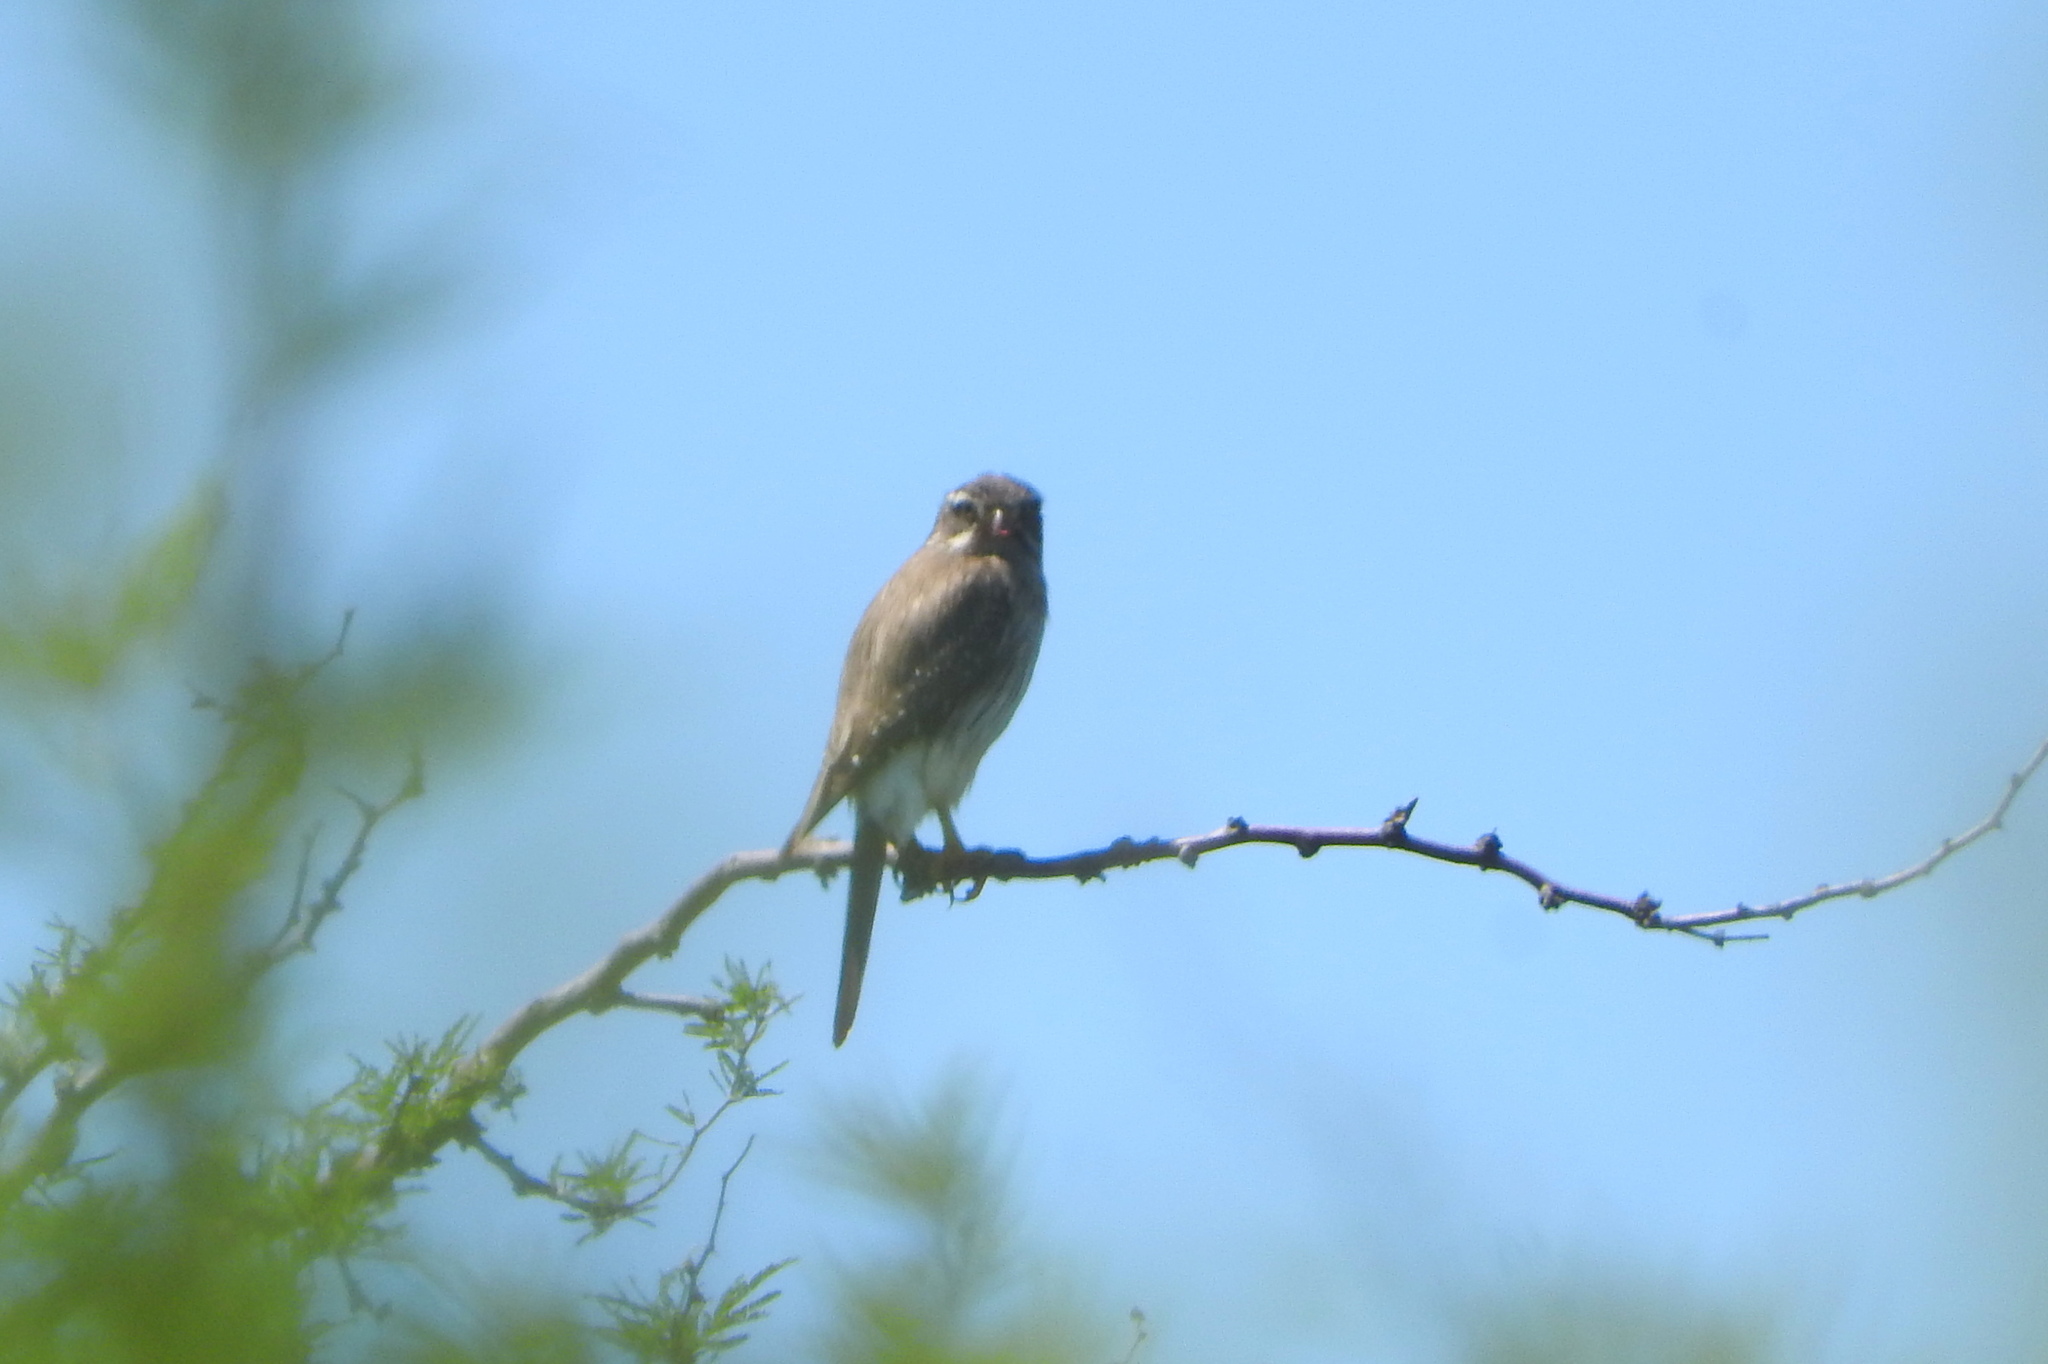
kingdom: Animalia
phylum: Chordata
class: Aves
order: Falconiformes
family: Falconidae
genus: Spiziapteryx
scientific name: Spiziapteryx circumcincta
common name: Spot-winged falconet
